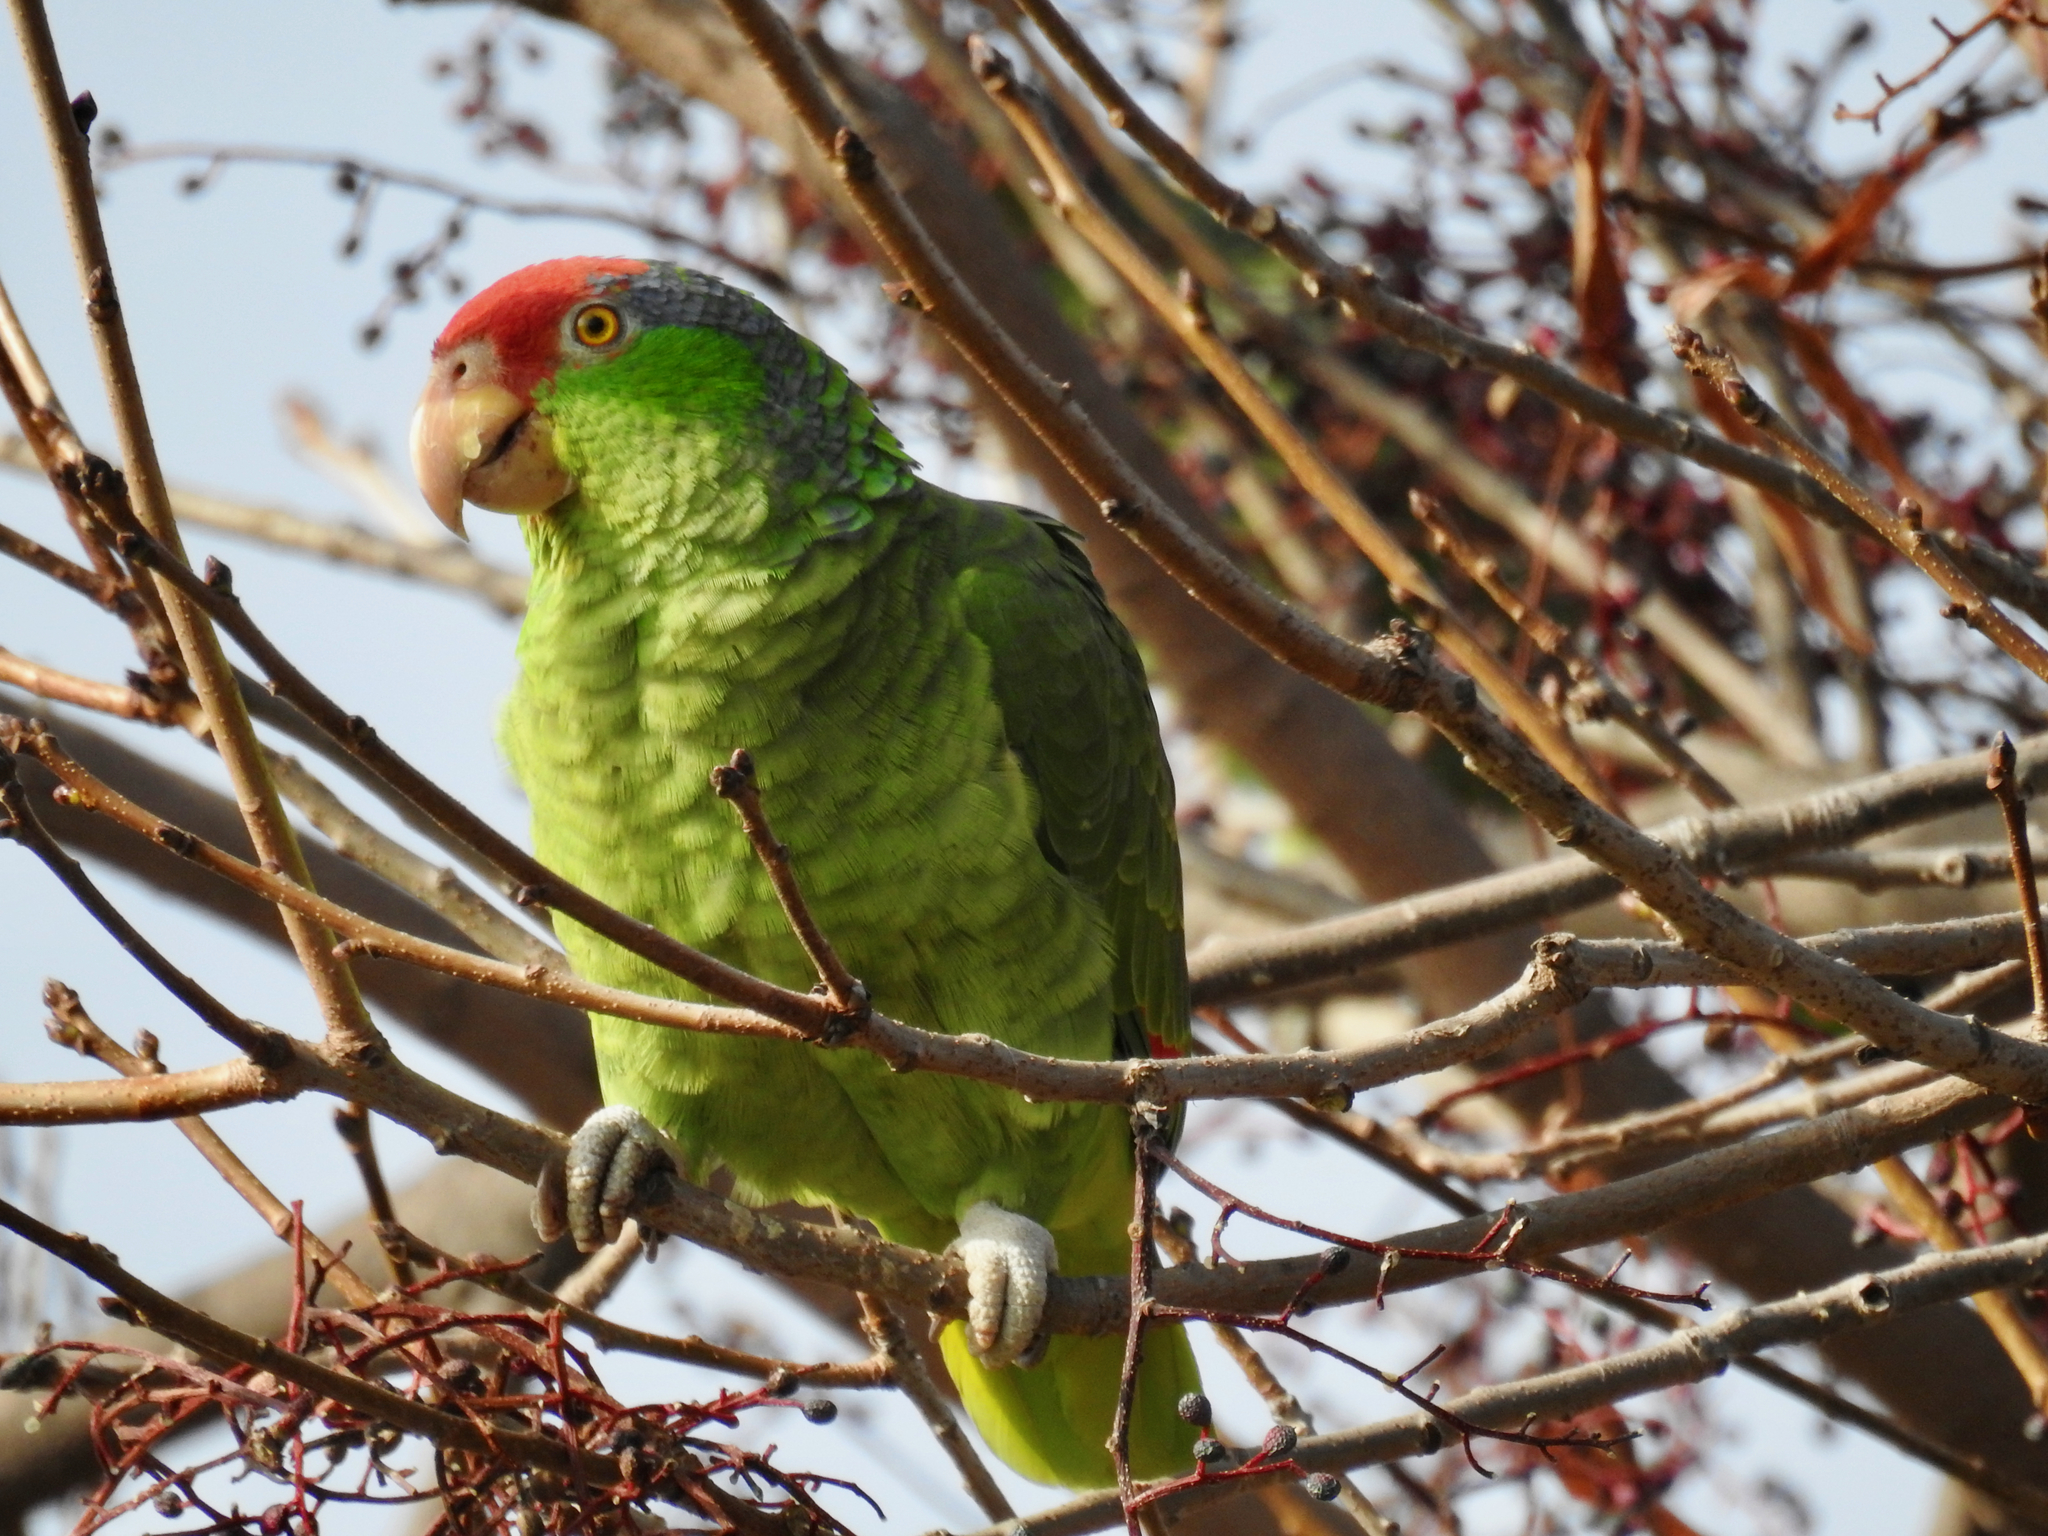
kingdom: Animalia
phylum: Chordata
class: Aves
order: Psittaciformes
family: Psittacidae
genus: Amazona
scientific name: Amazona viridigenalis
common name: Red-crowned amazon
